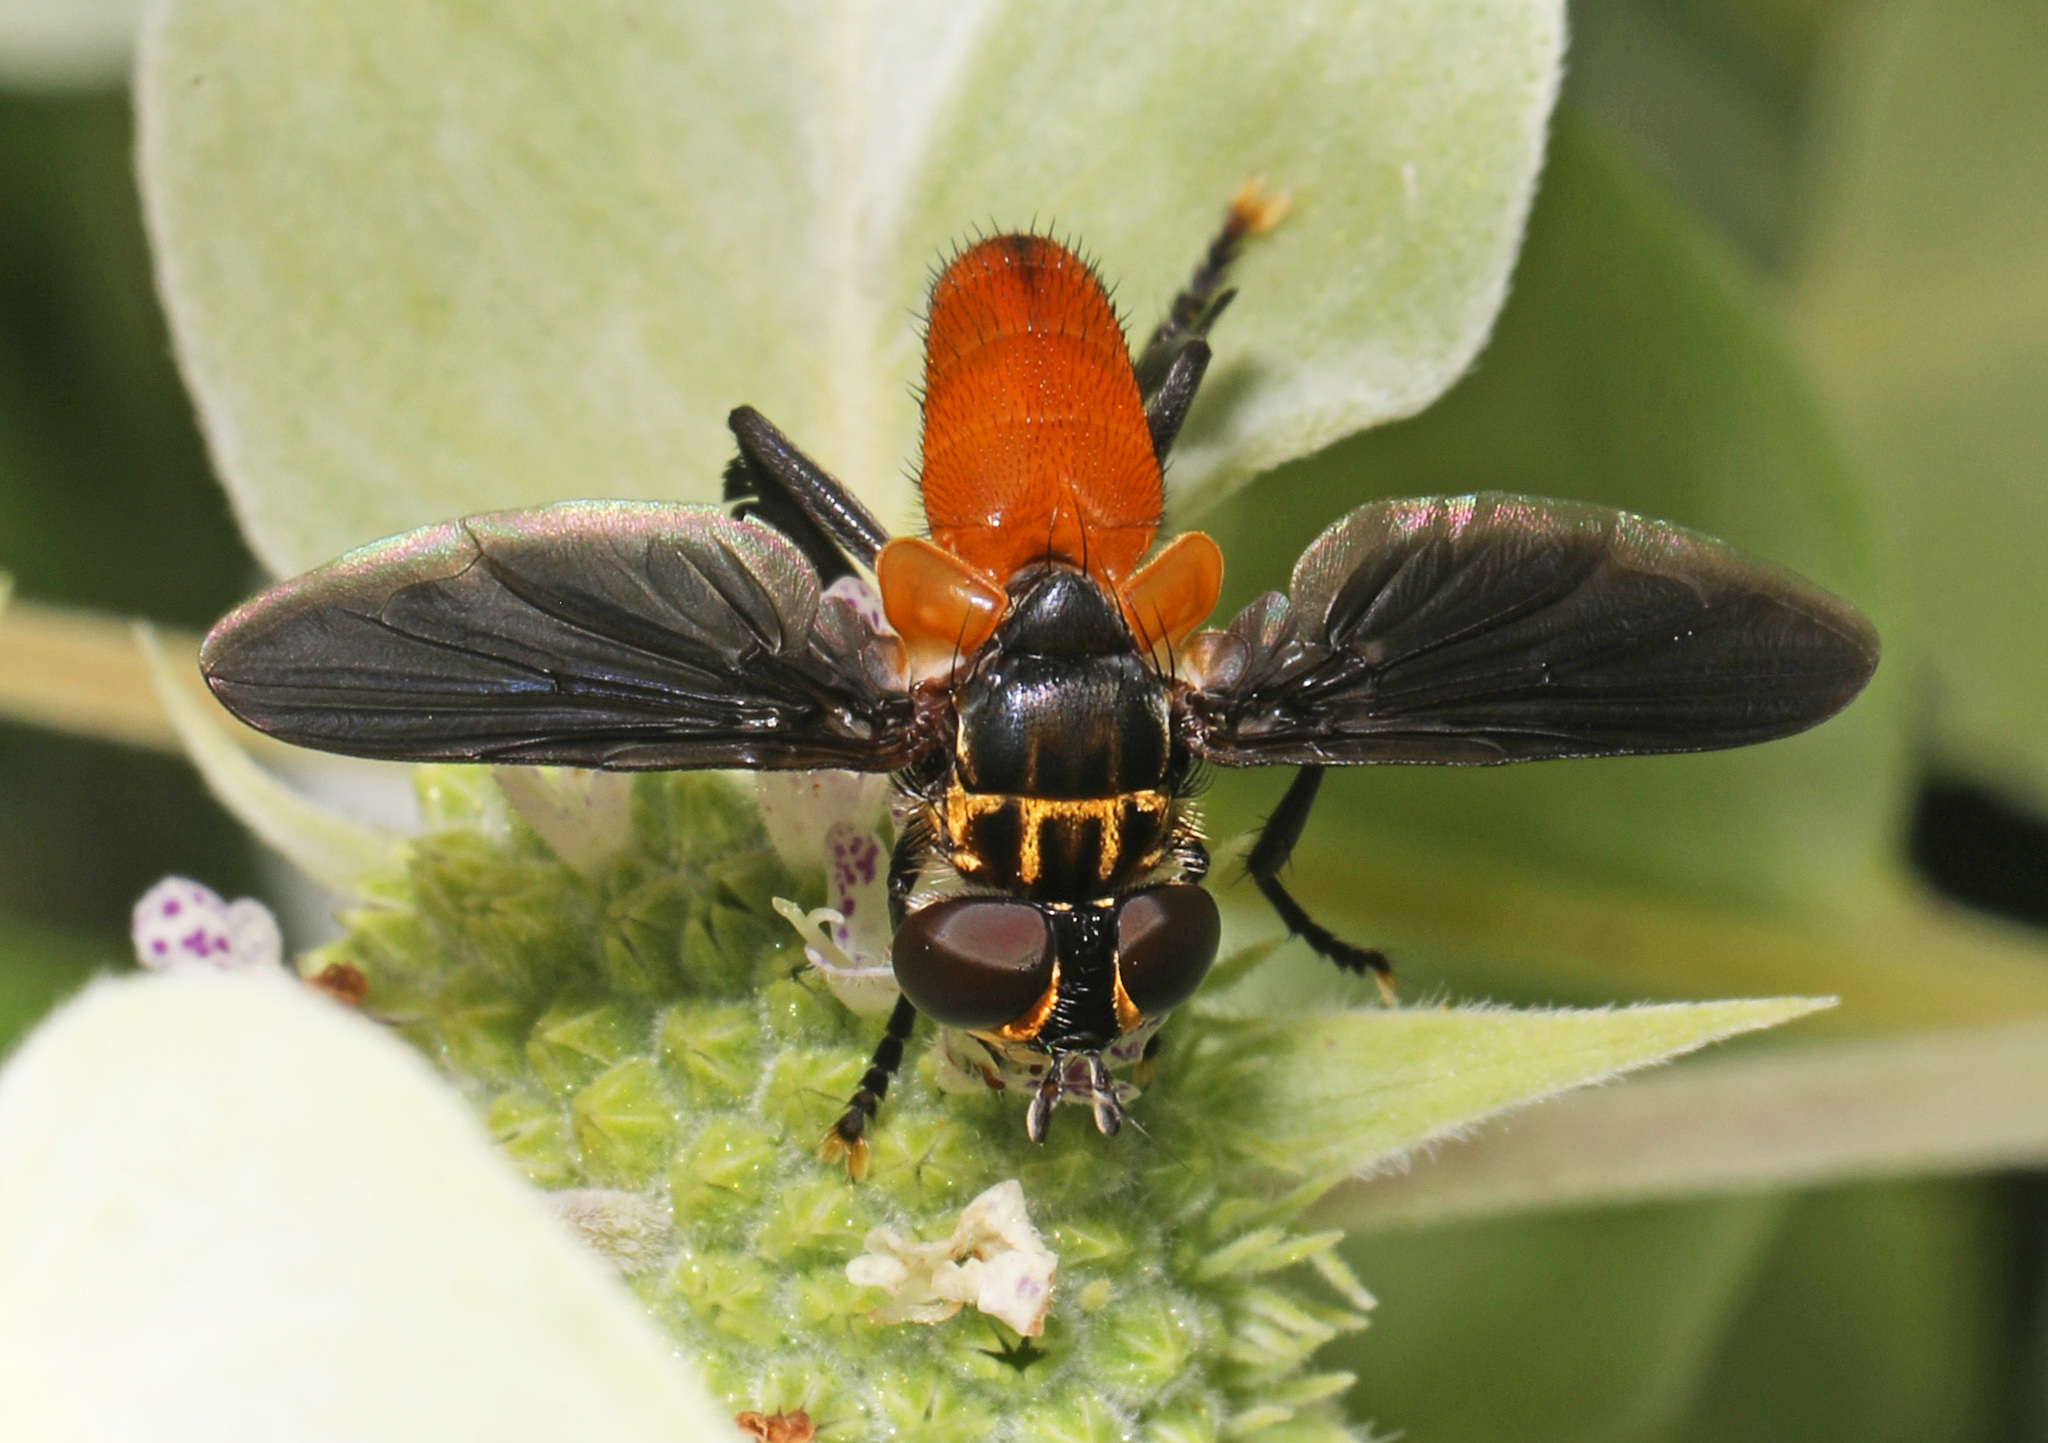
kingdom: Animalia
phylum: Arthropoda
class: Insecta
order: Diptera
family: Tachinidae
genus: Trichopoda
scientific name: Trichopoda pennipes
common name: Tachinid fly
